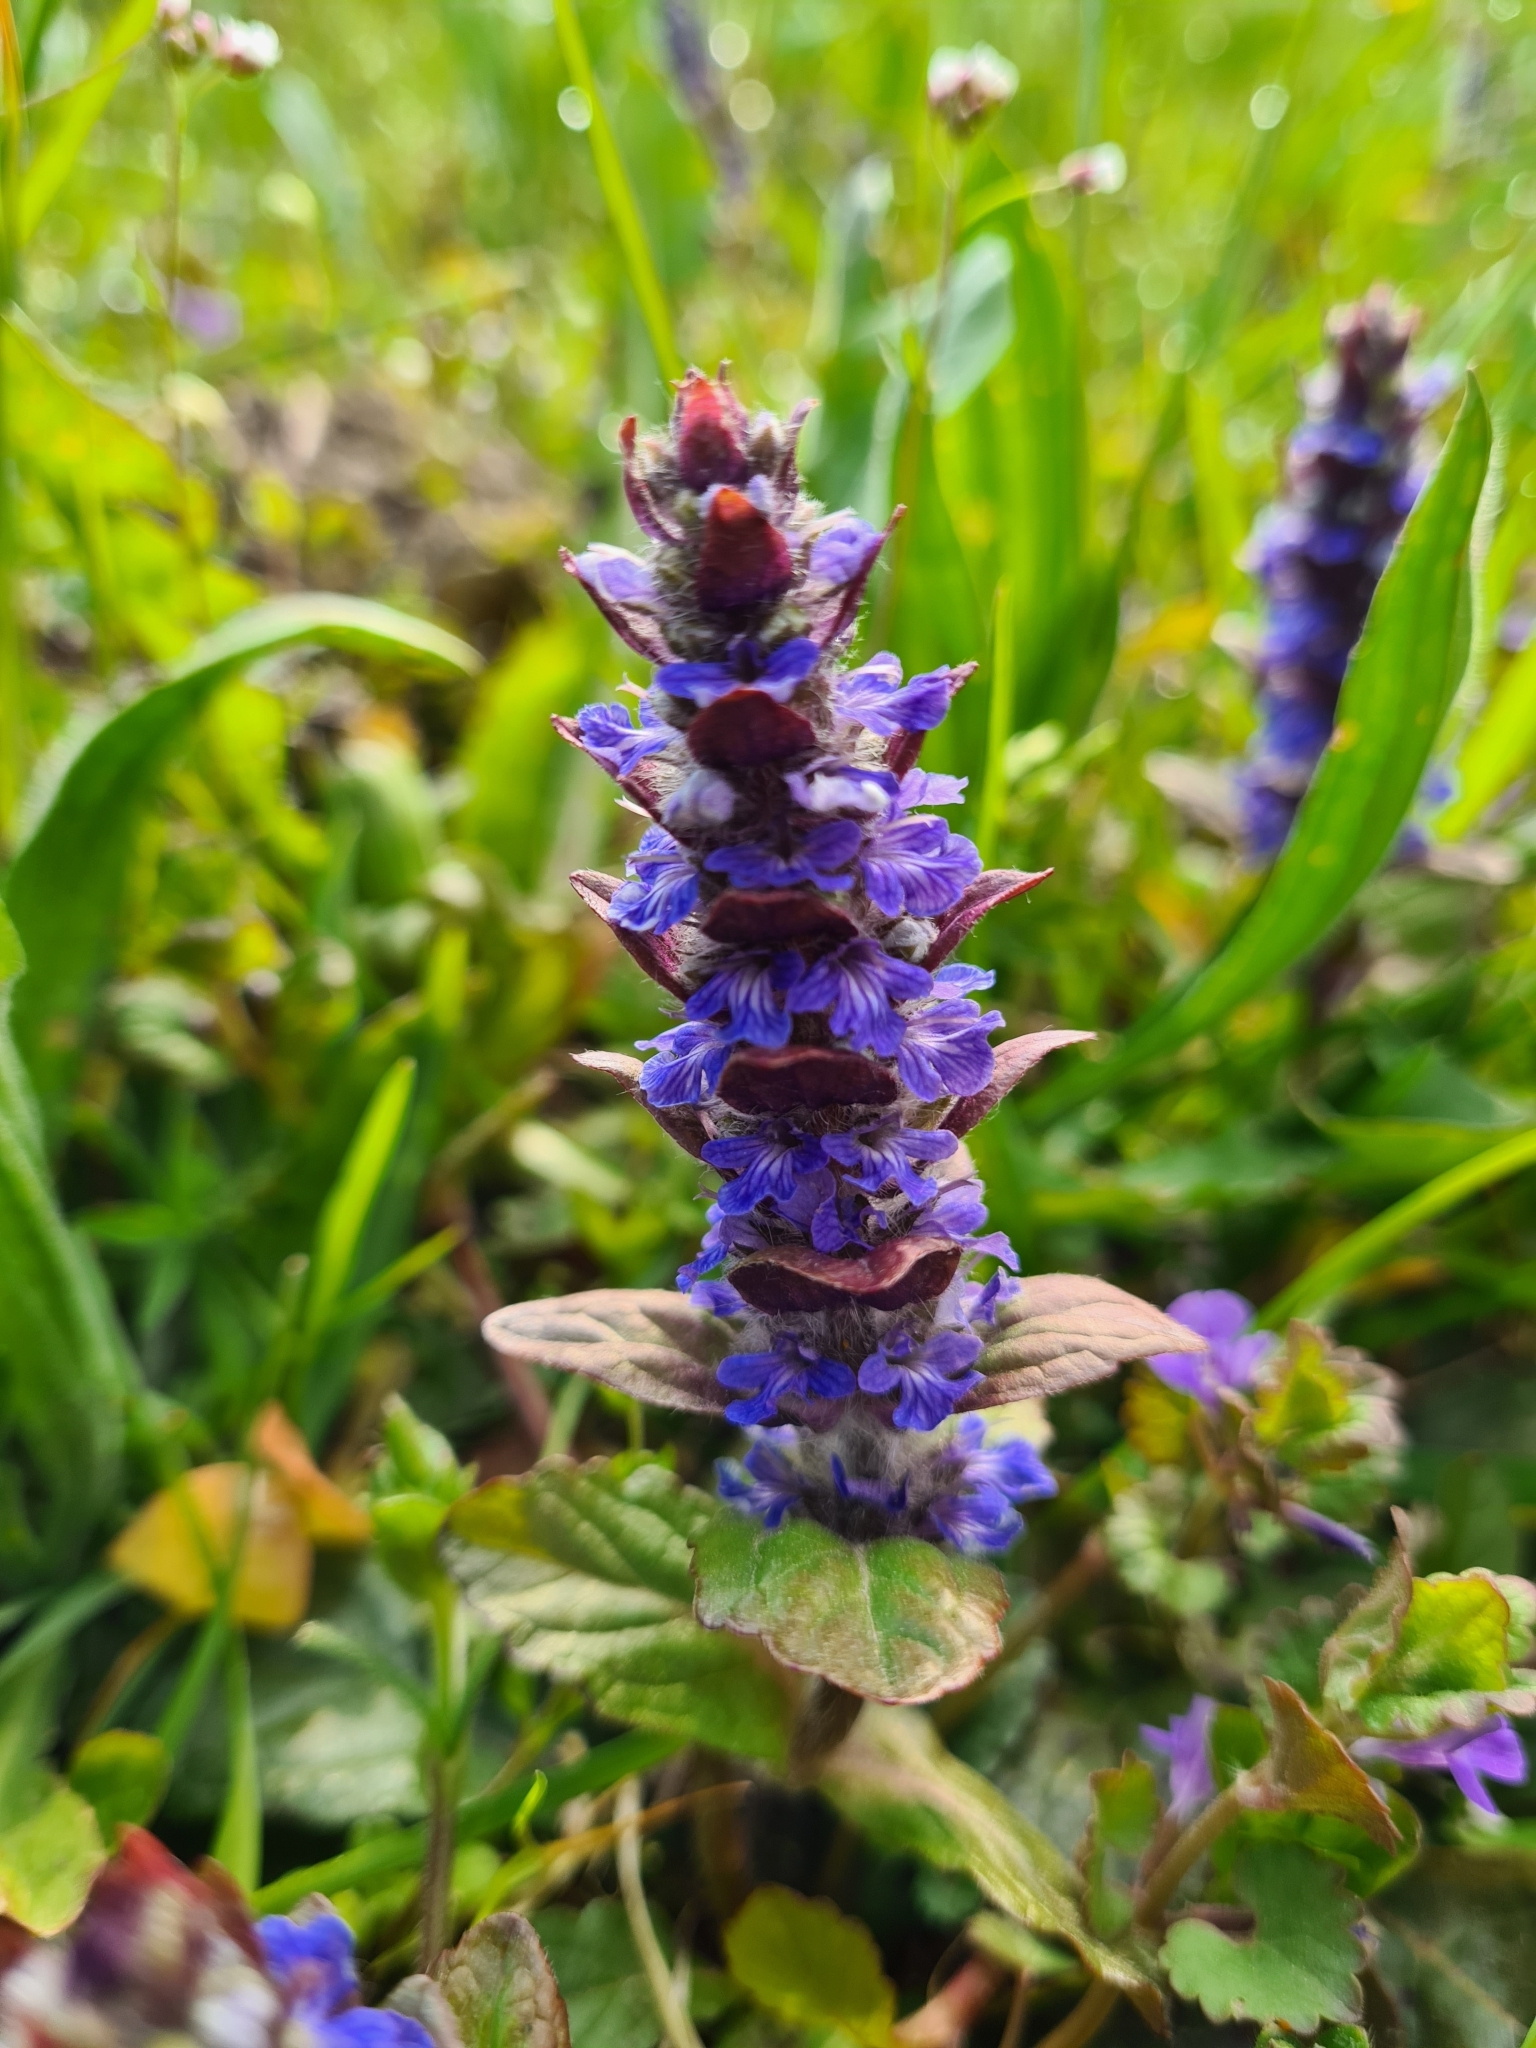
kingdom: Plantae
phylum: Tracheophyta
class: Magnoliopsida
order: Lamiales
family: Lamiaceae
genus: Ajuga
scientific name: Ajuga reptans
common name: Bugle
